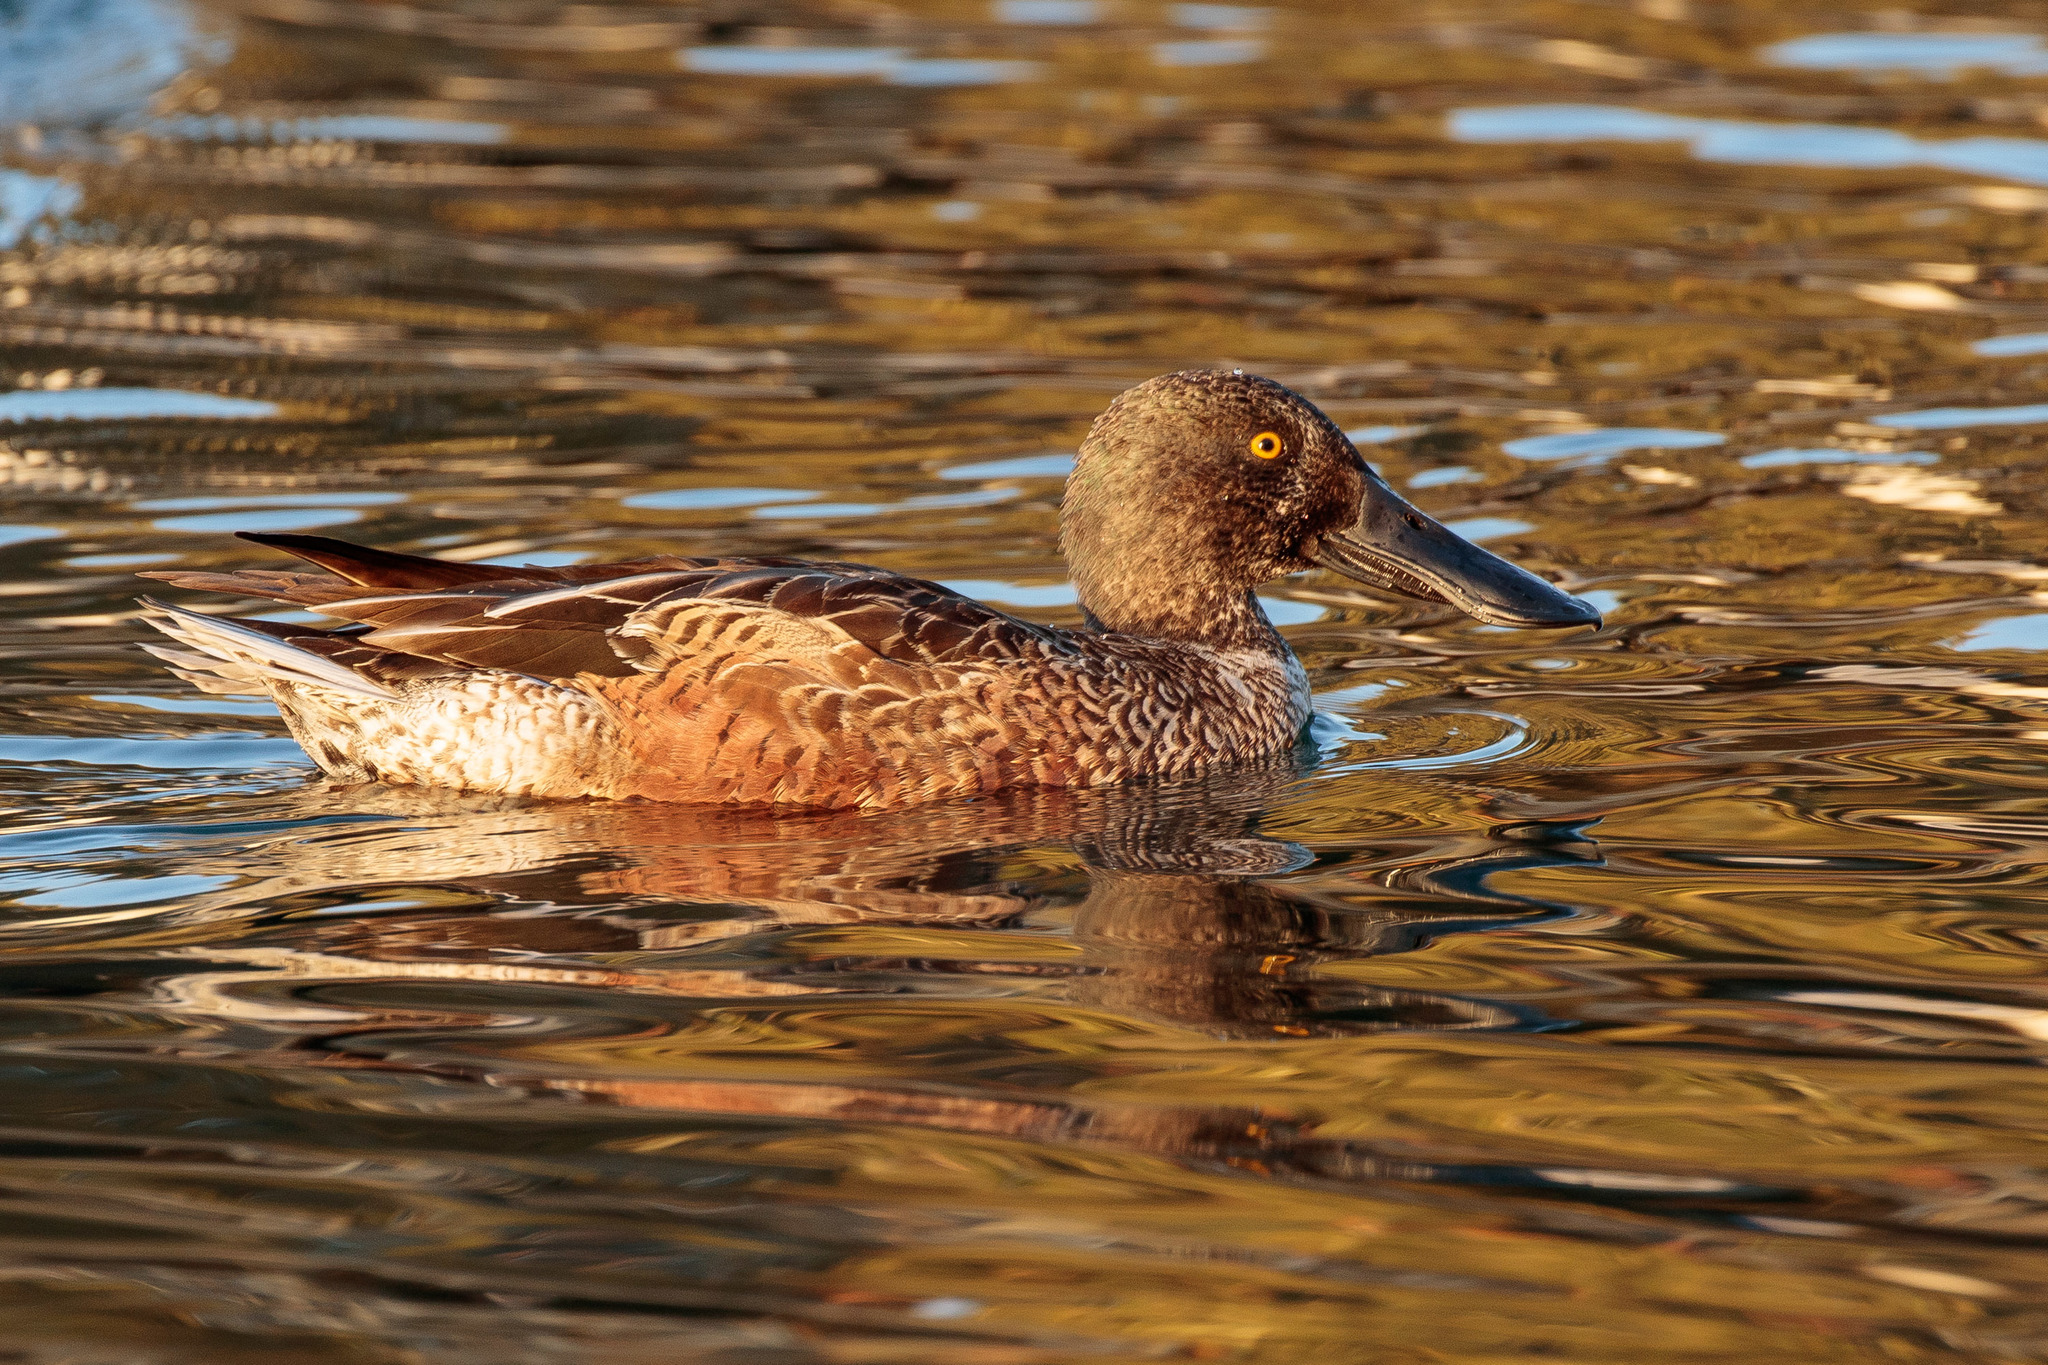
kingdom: Animalia
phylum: Chordata
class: Aves
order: Anseriformes
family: Anatidae
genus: Spatula
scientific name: Spatula clypeata
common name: Northern shoveler
